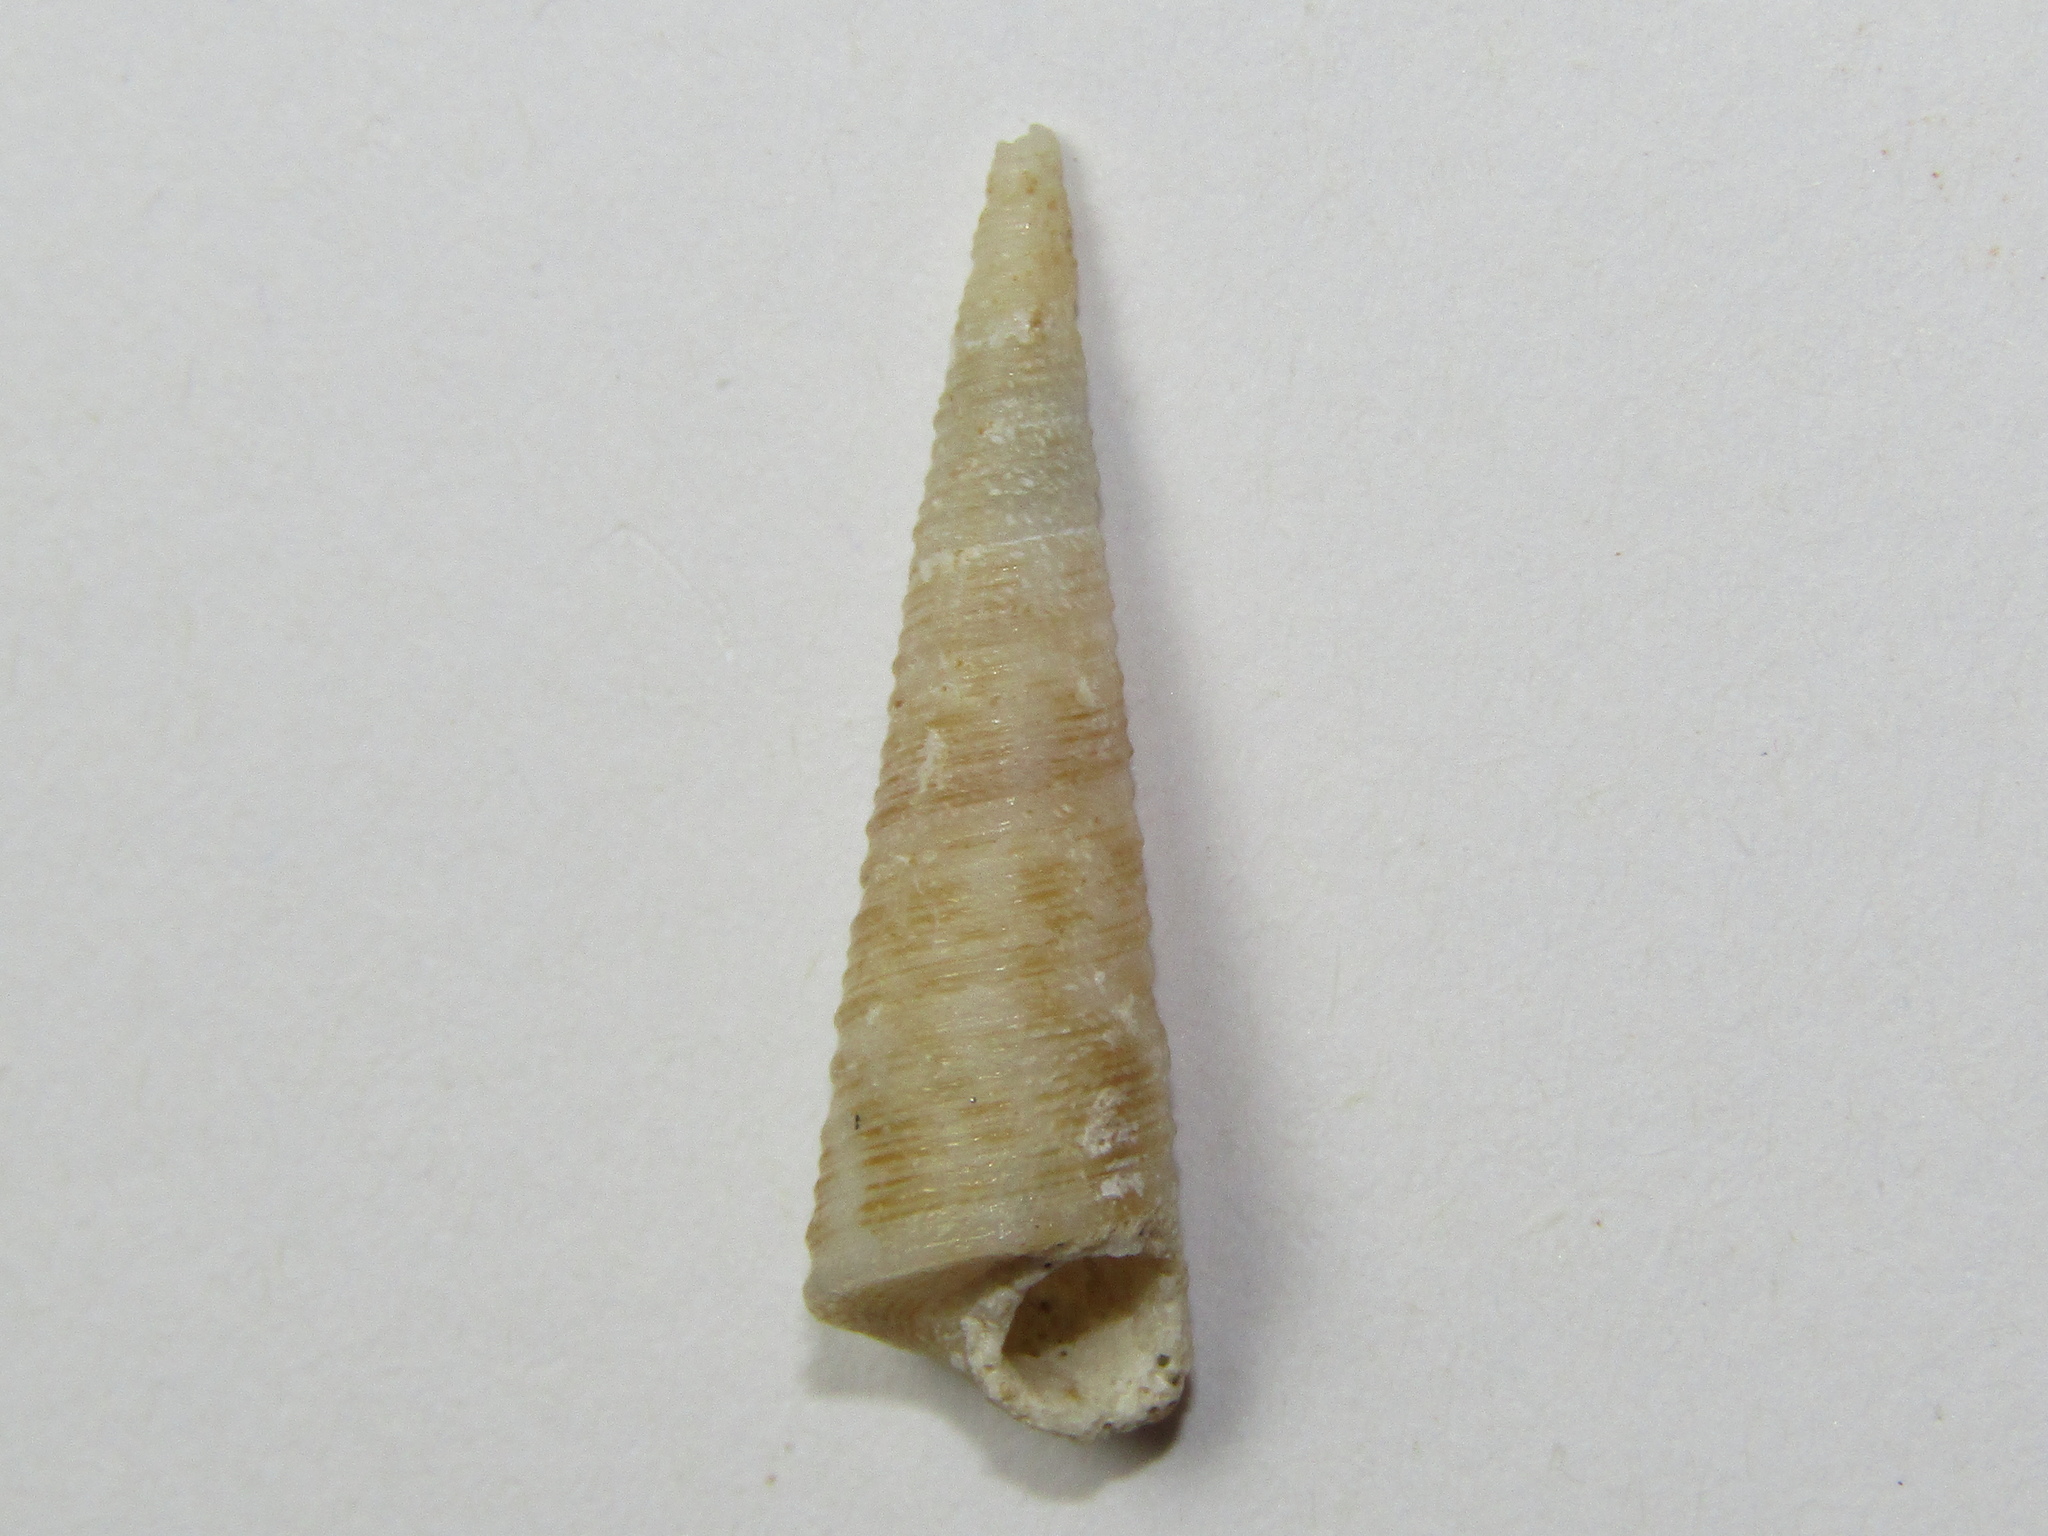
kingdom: Animalia
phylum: Mollusca
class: Gastropoda
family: Turritellidae
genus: Maoricolpus
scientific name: Maoricolpus roseus
